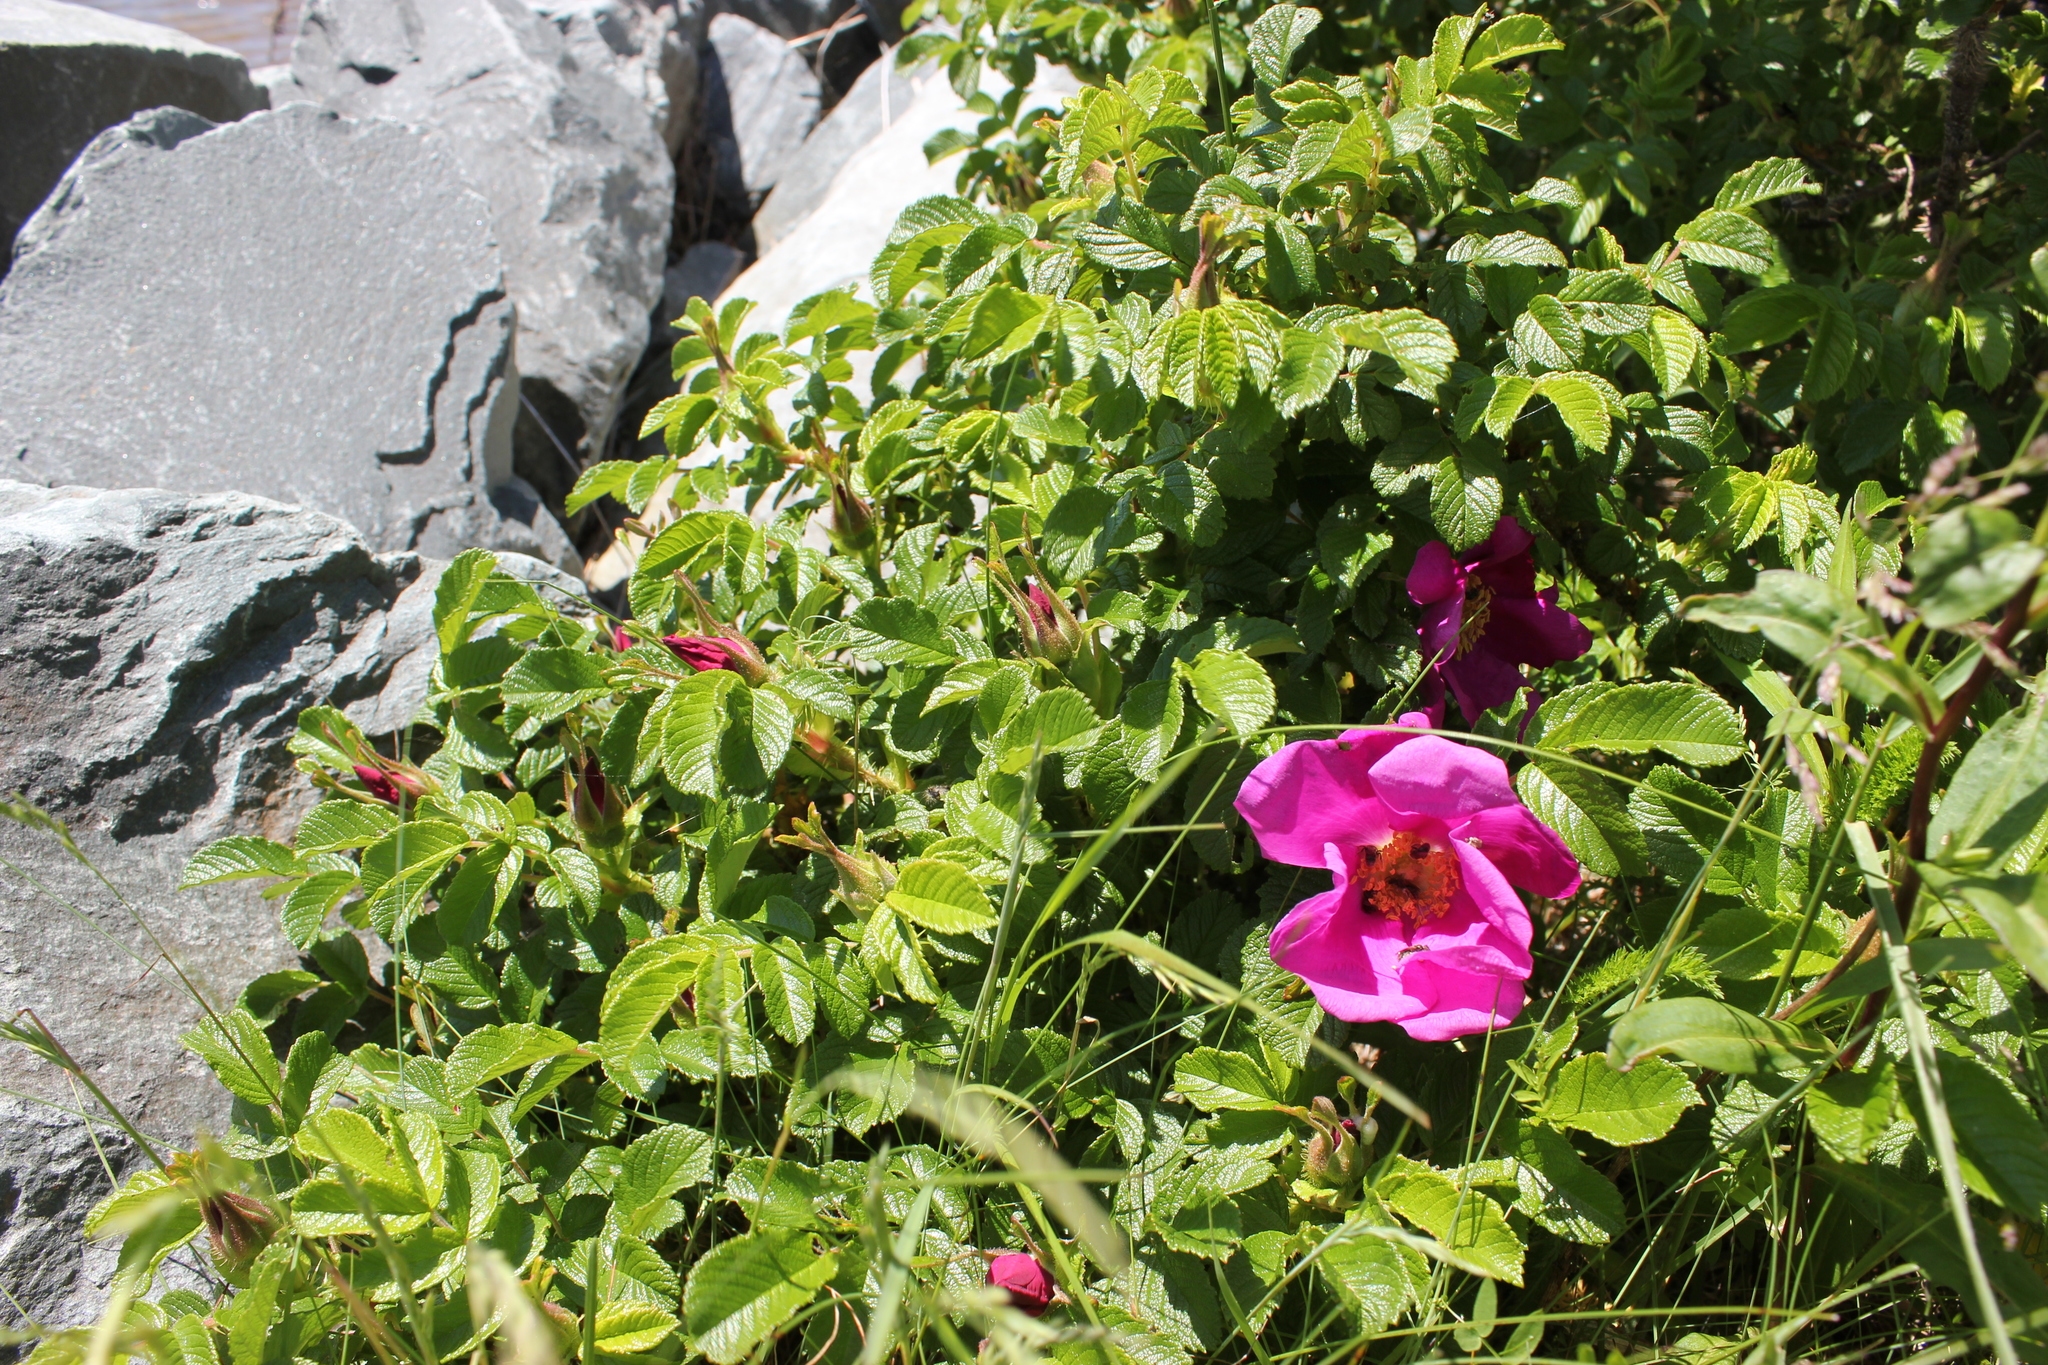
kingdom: Plantae
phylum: Tracheophyta
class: Magnoliopsida
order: Rosales
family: Rosaceae
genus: Rosa
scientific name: Rosa rugosa
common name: Japanese rose
